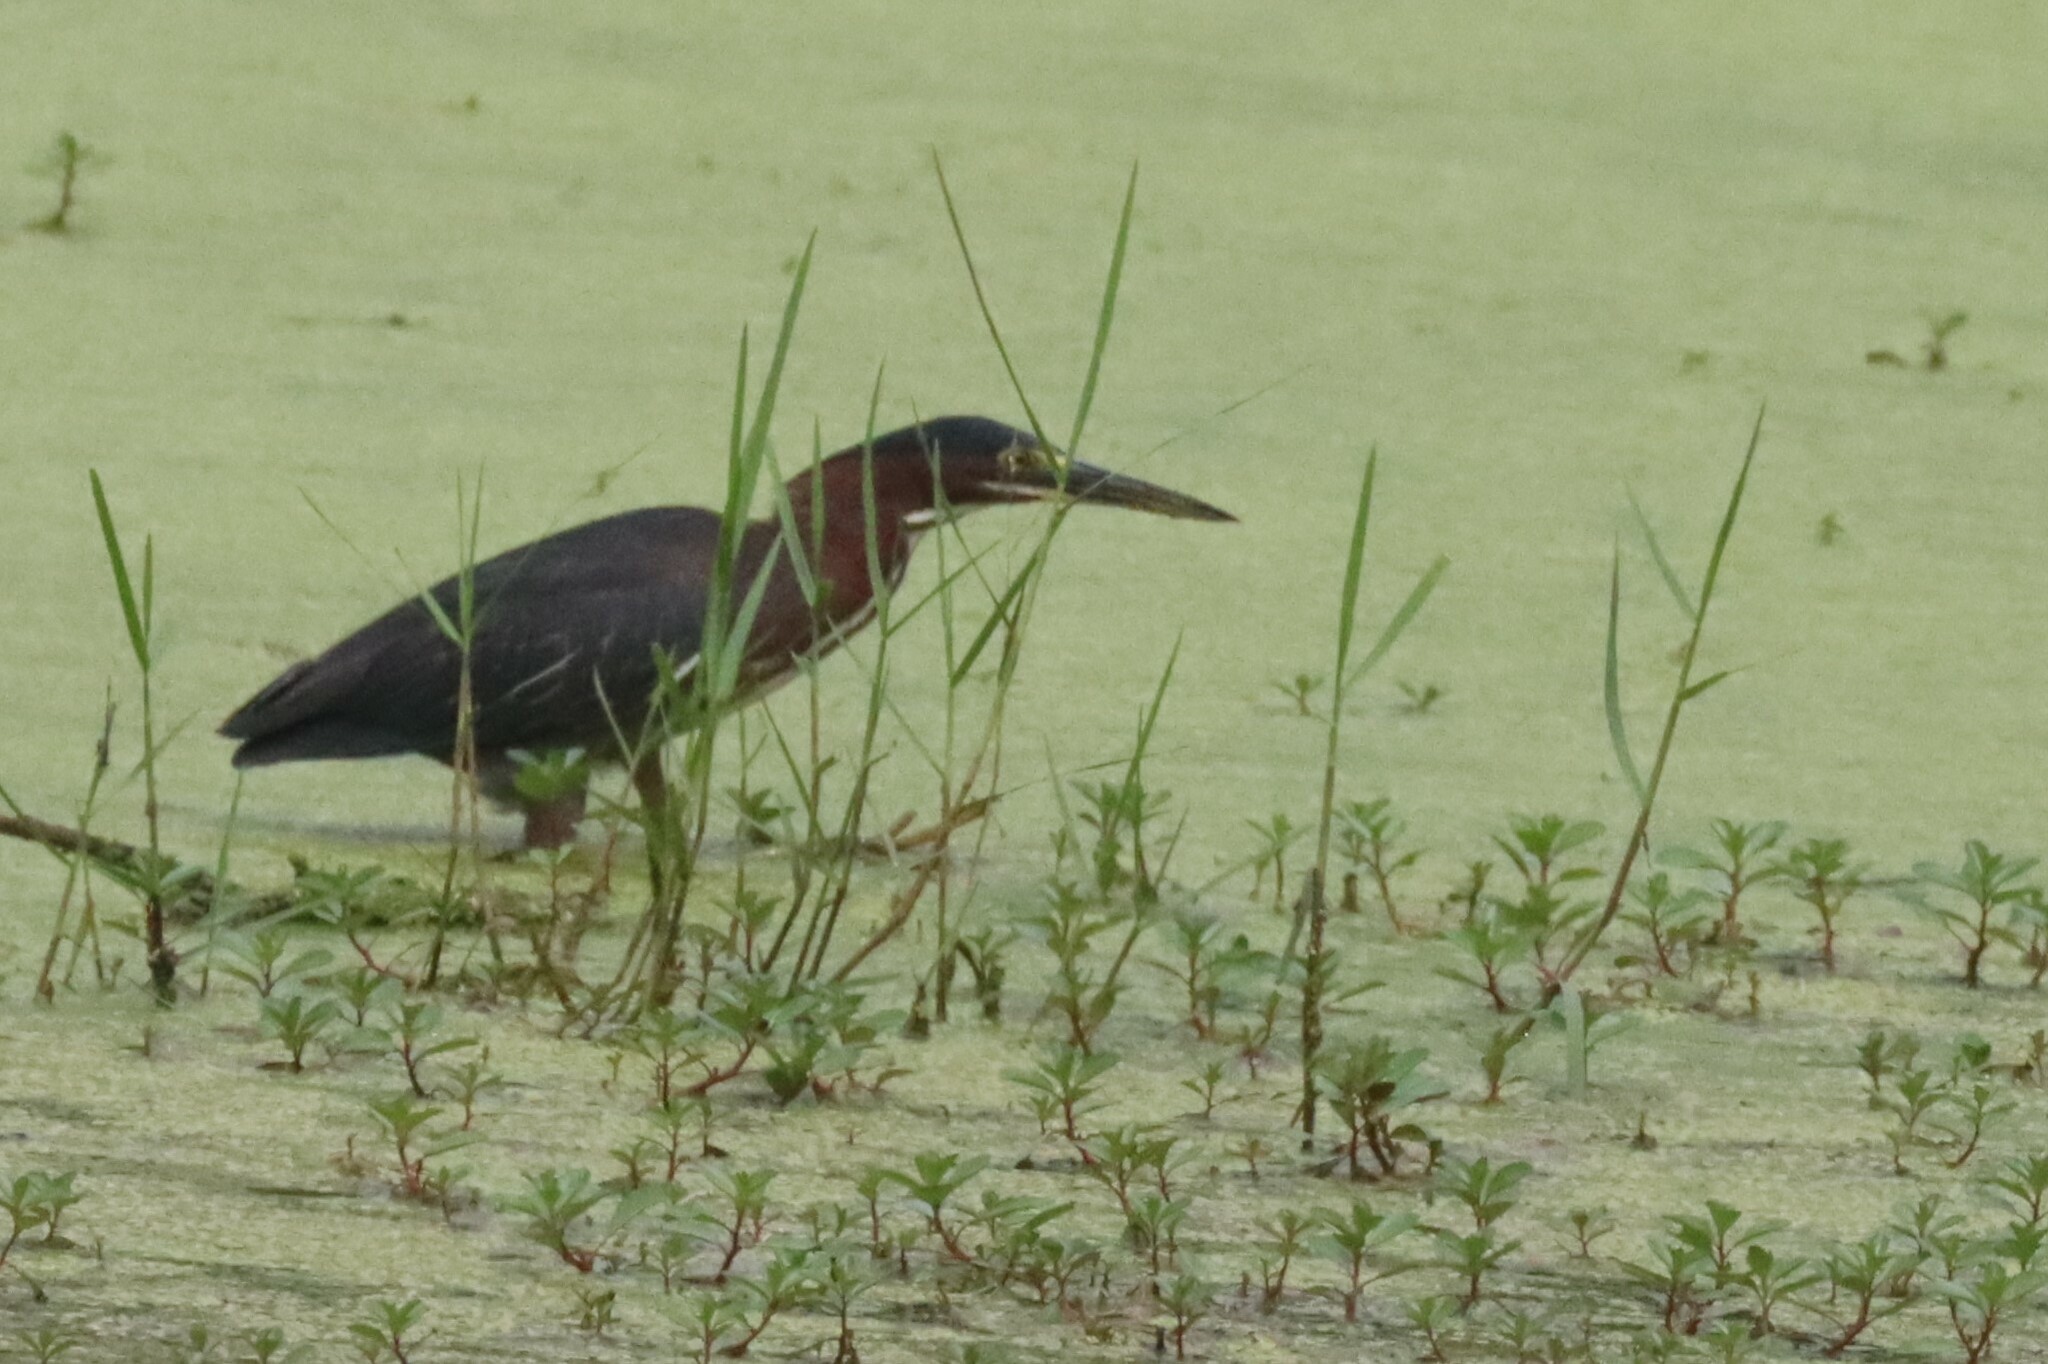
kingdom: Animalia
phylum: Chordata
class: Aves
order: Pelecaniformes
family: Ardeidae
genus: Butorides
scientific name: Butorides virescens
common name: Green heron
